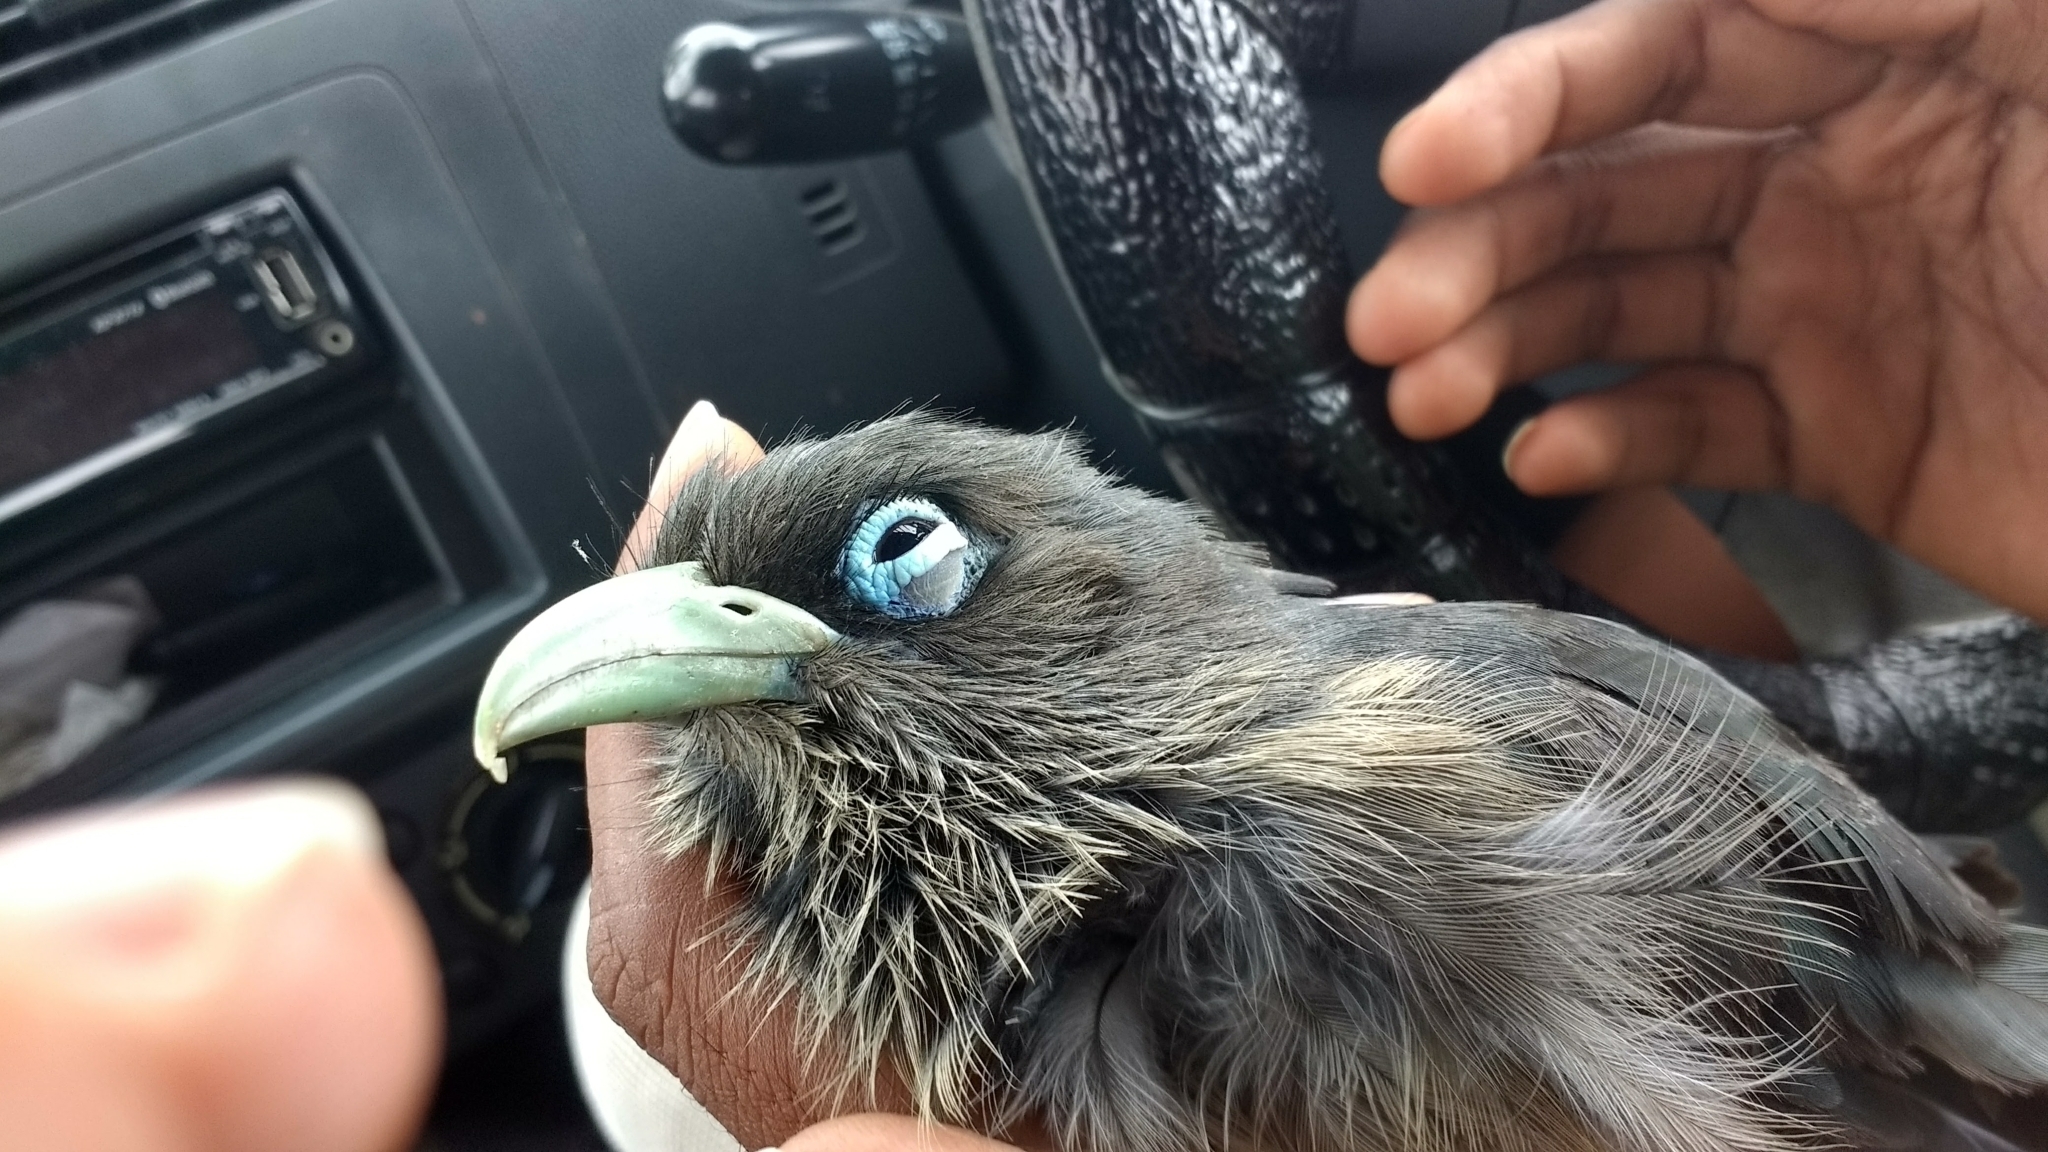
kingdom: Animalia
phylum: Chordata
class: Aves
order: Cuculiformes
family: Cuculidae
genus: Rhopodytes
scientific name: Rhopodytes viridirostris
